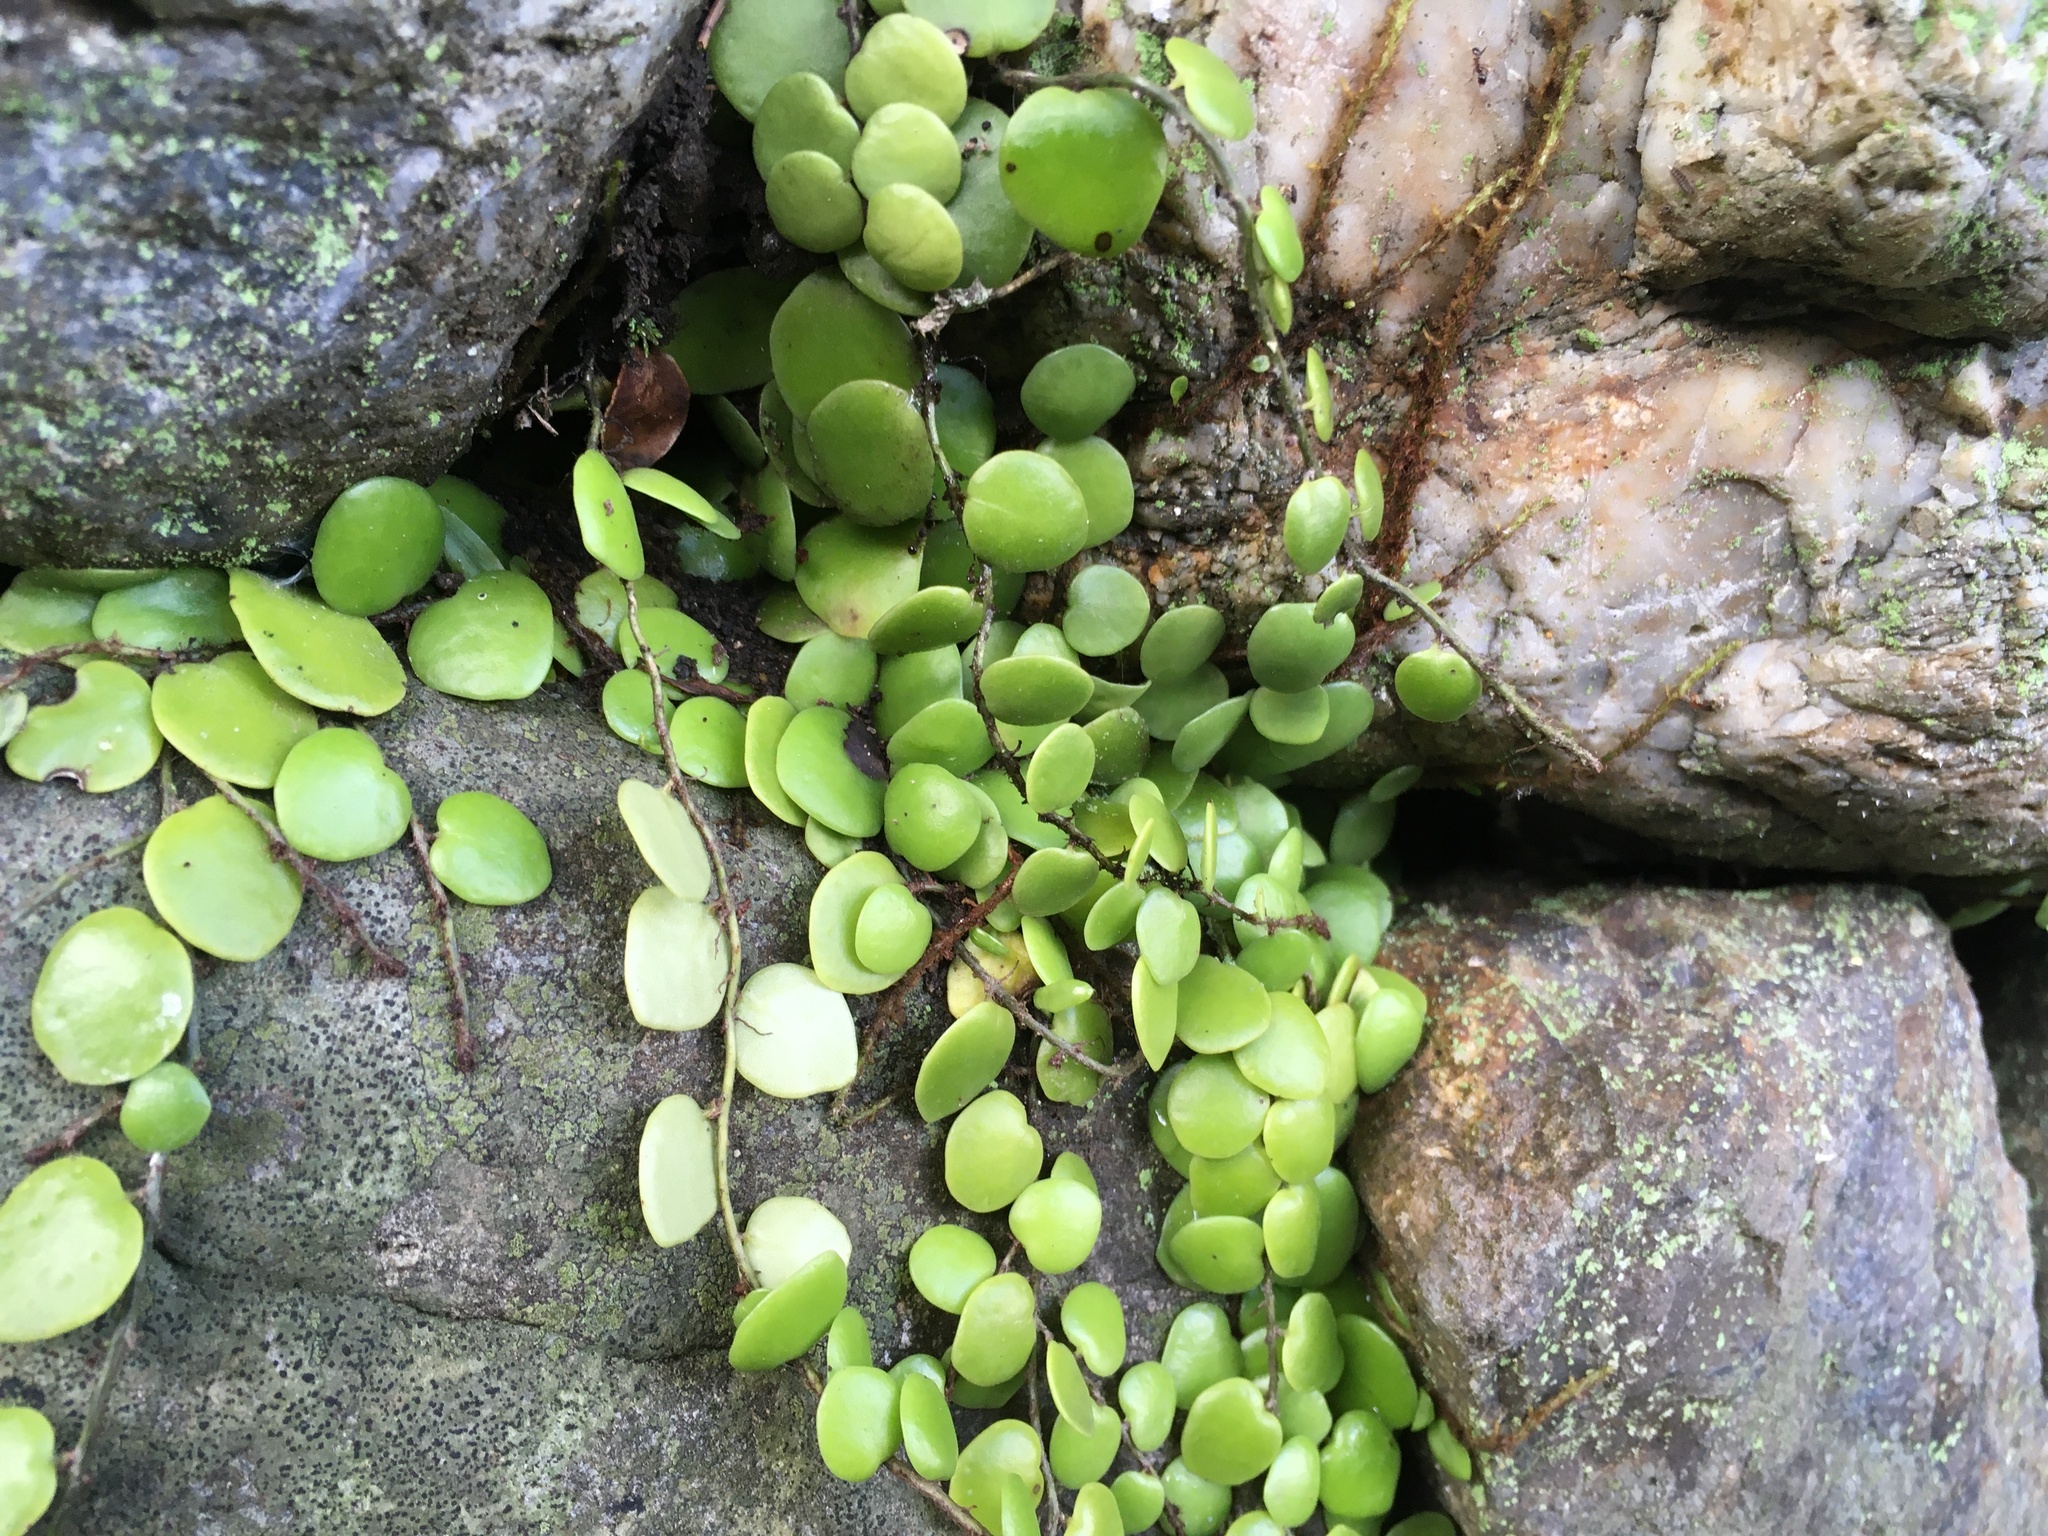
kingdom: Plantae
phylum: Tracheophyta
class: Polypodiopsida
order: Polypodiales
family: Polypodiaceae
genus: Lepisorus
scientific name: Lepisorus microphyllus
